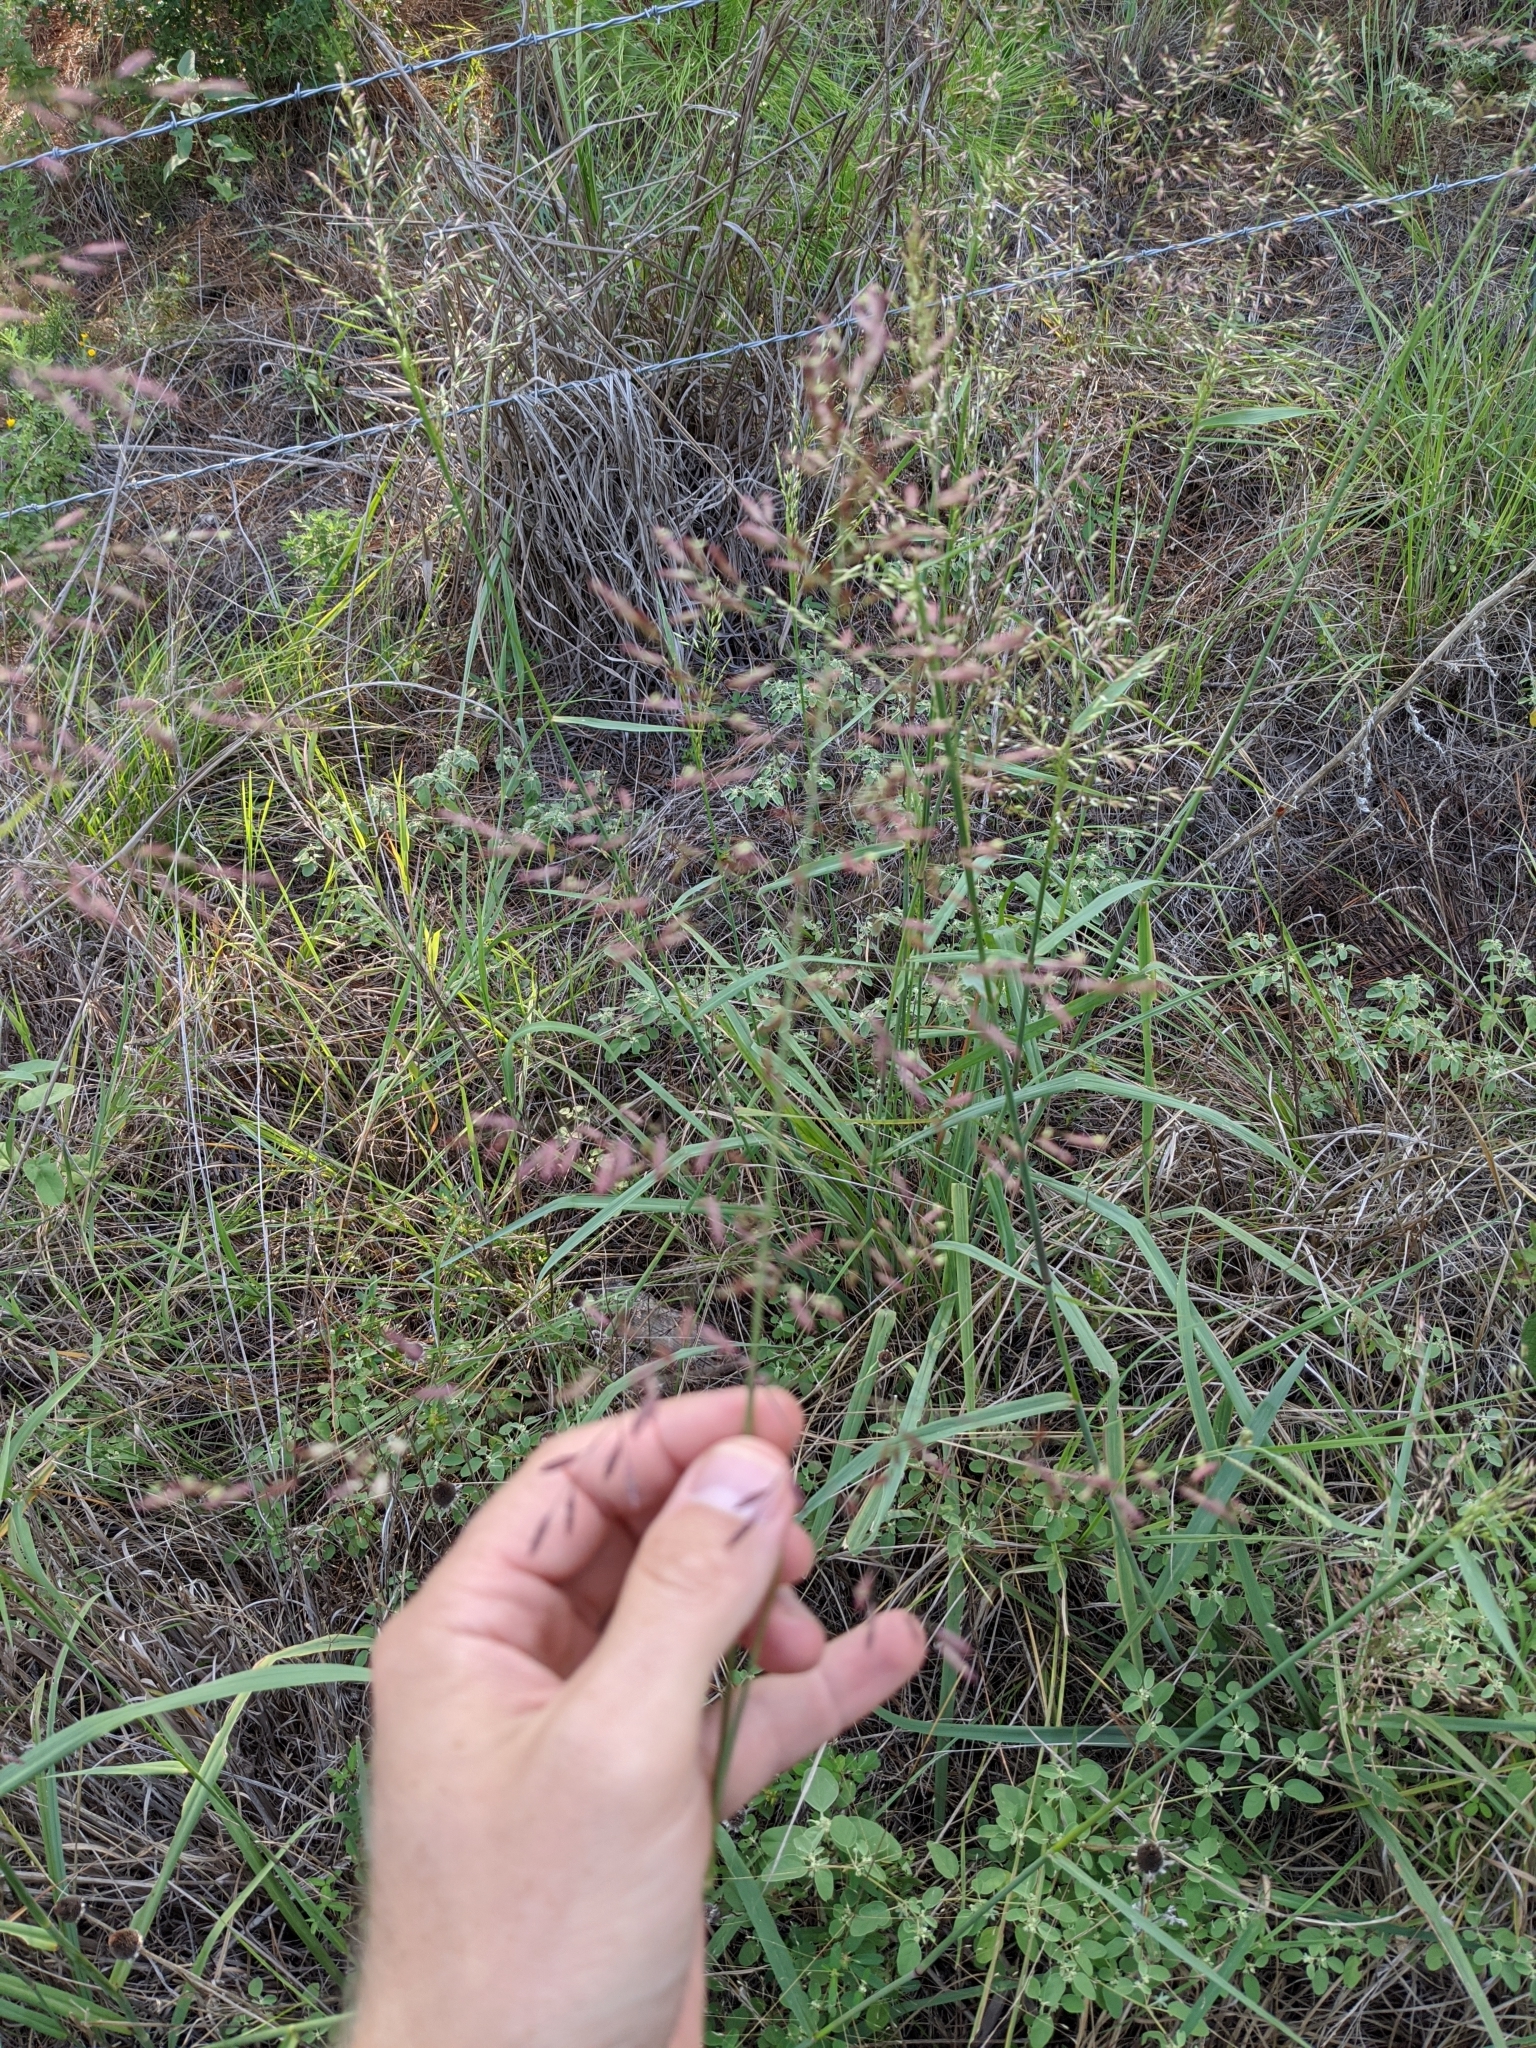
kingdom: Plantae
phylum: Tracheophyta
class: Liliopsida
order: Poales
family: Poaceae
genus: Tridens
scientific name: Tridens chapmanii
